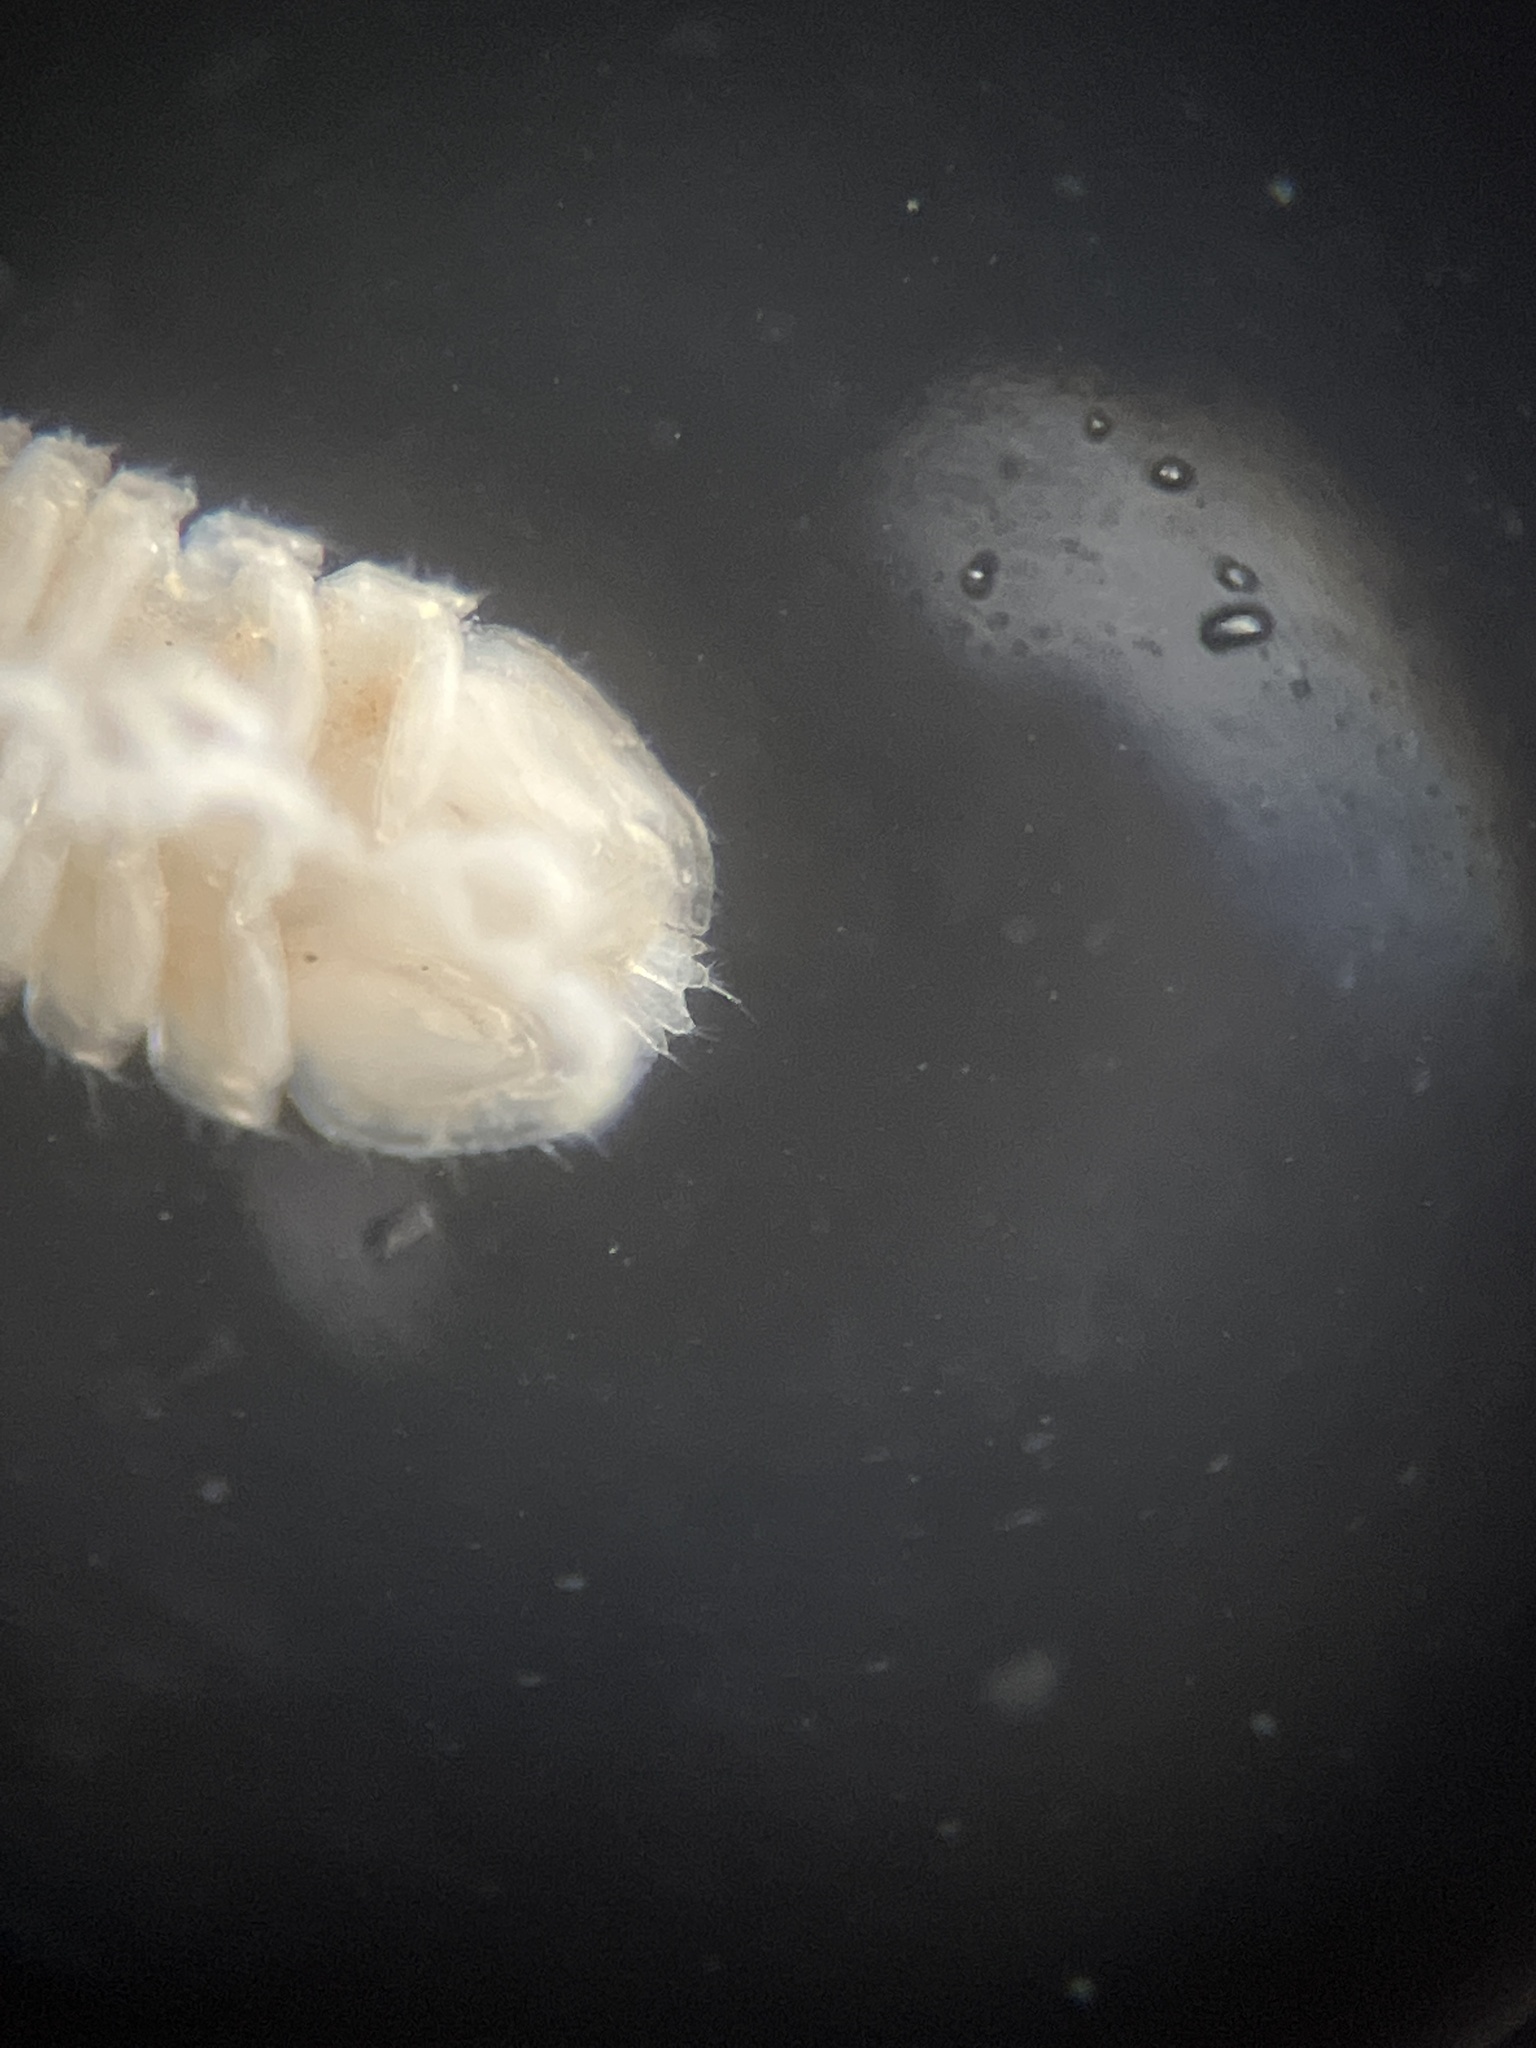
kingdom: Animalia
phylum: Arthropoda
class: Malacostraca
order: Isopoda
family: Janiridae
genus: Jaera
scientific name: Jaera albifrons
